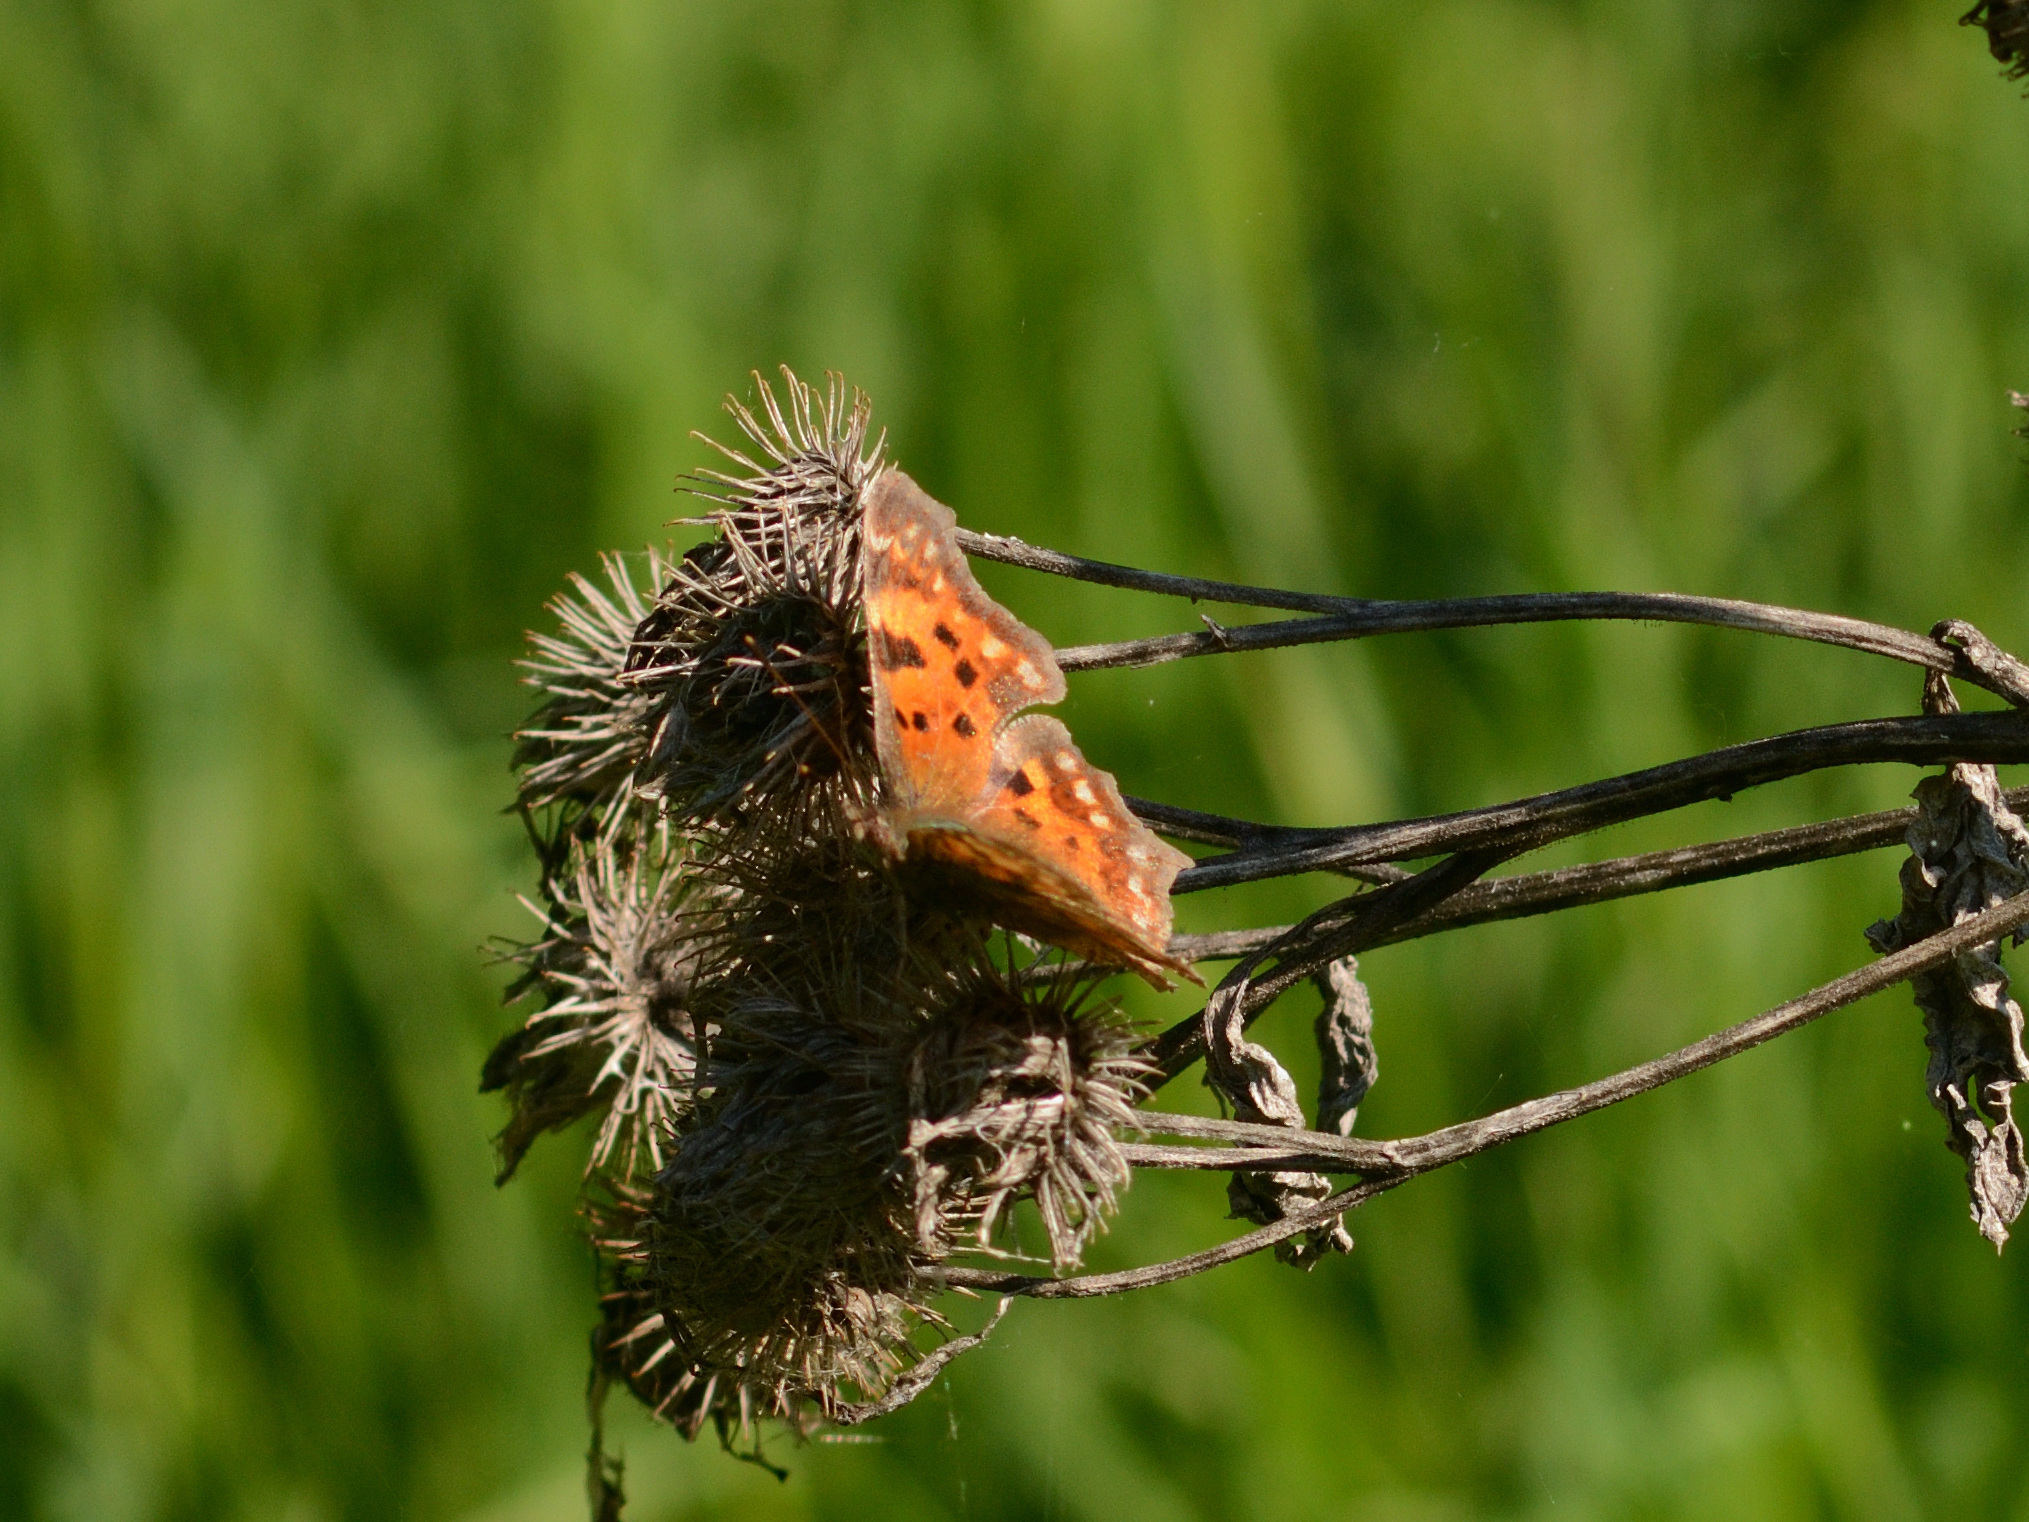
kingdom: Animalia
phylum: Arthropoda
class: Insecta
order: Lepidoptera
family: Nymphalidae
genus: Polygonia
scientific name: Polygonia c-album
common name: Comma
